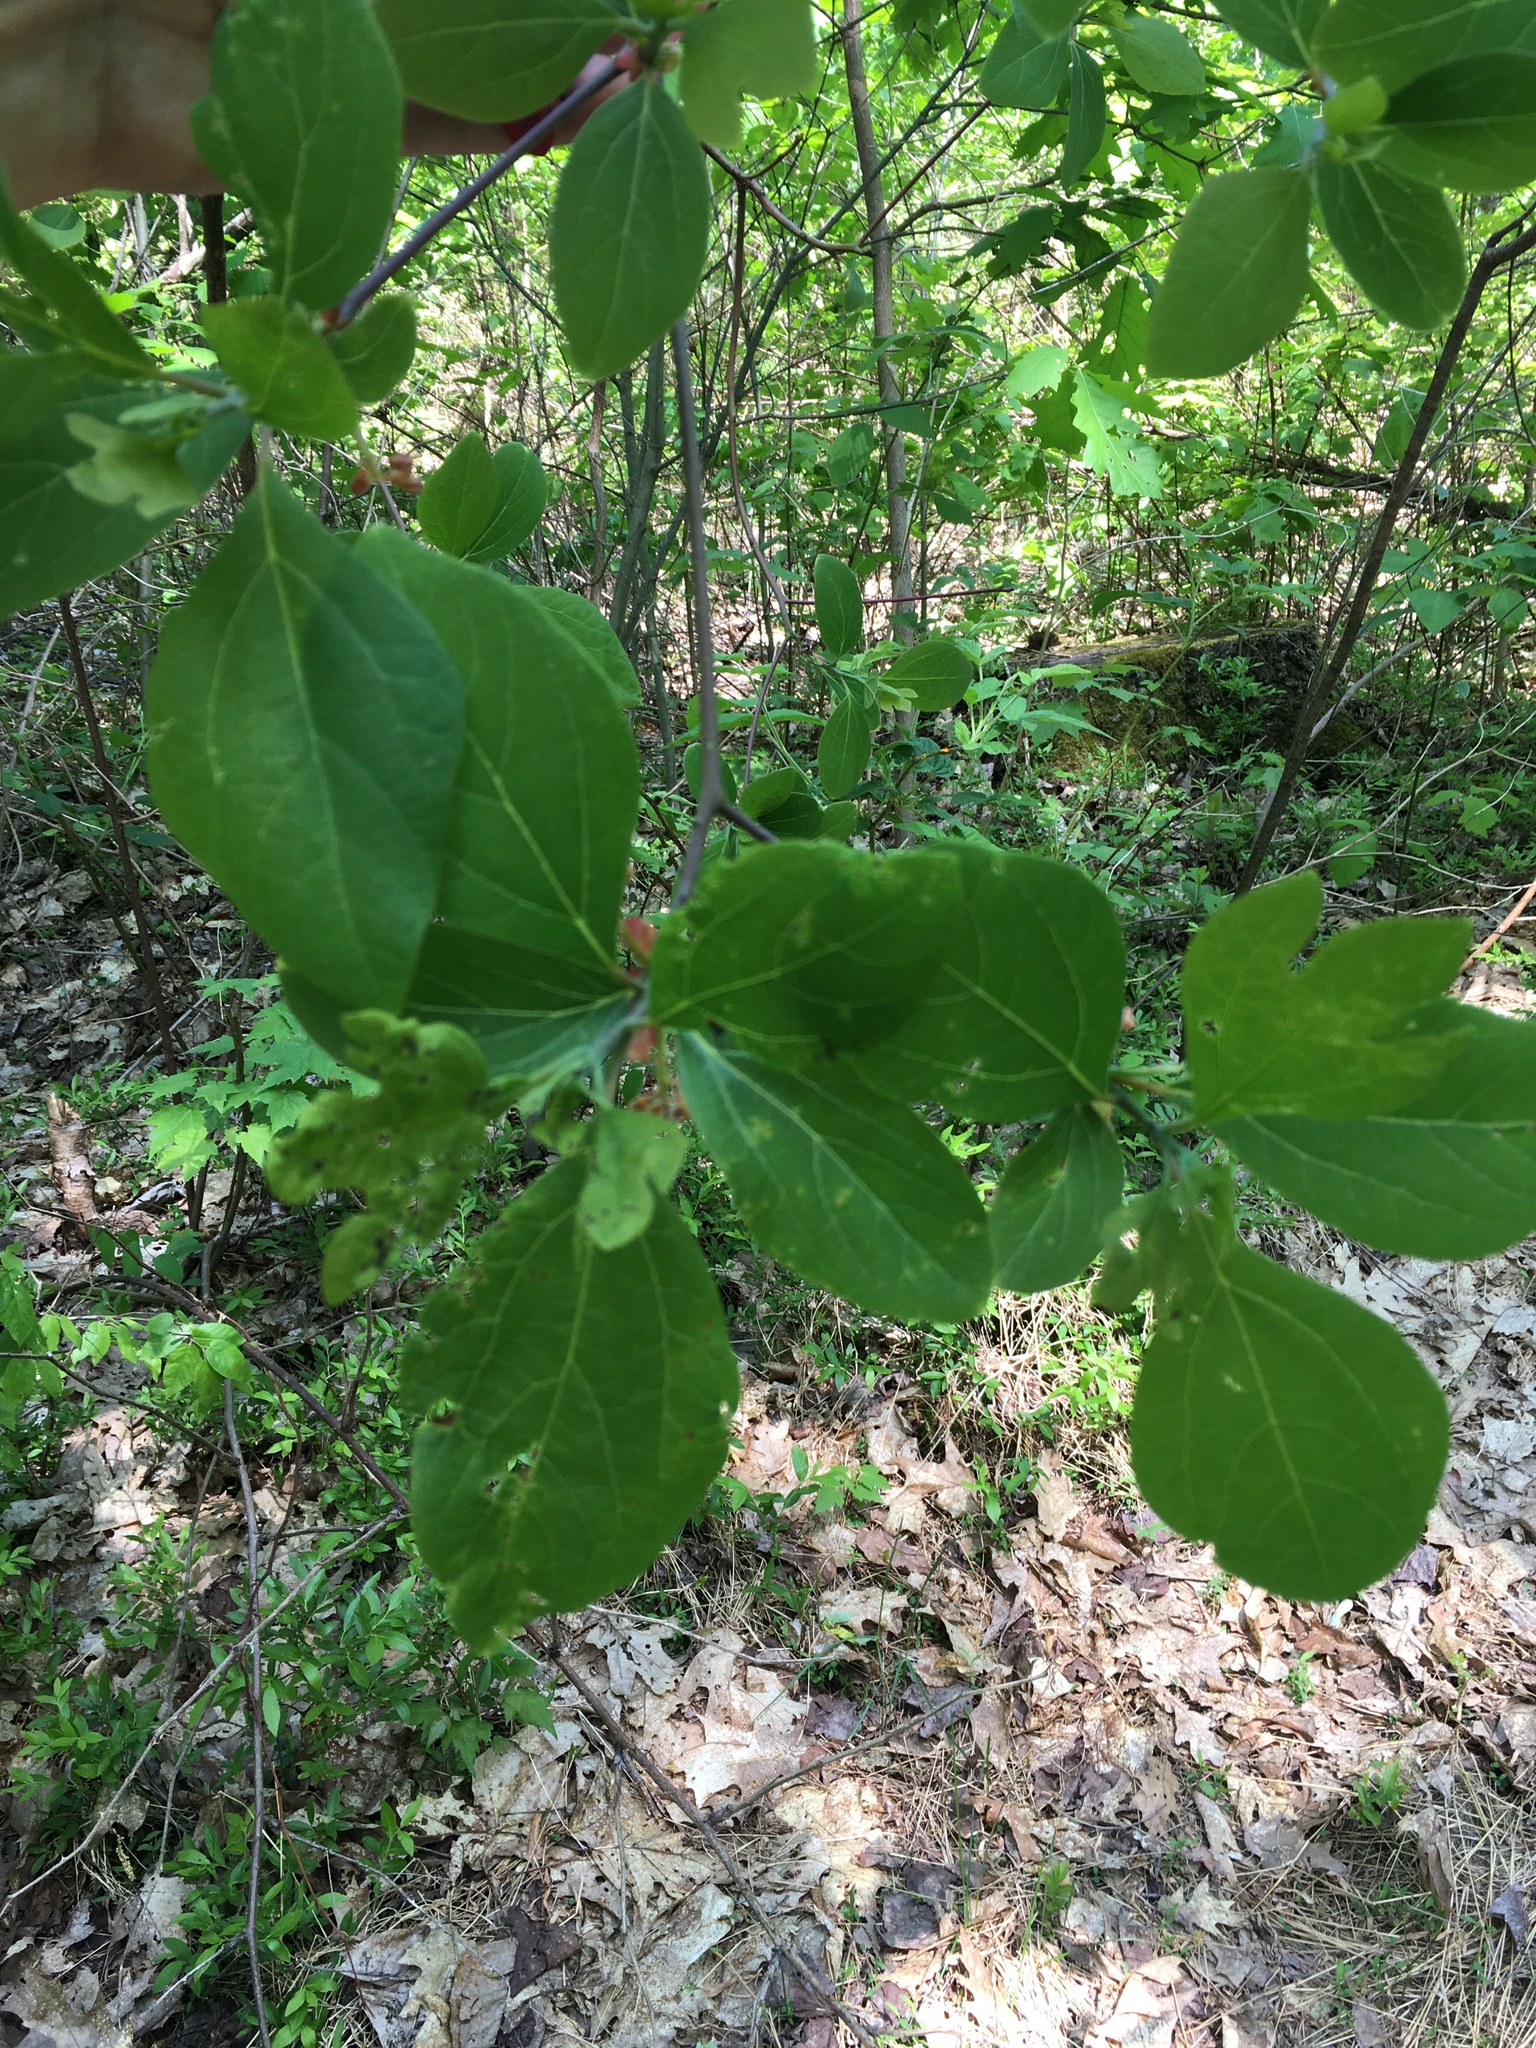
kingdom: Plantae
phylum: Tracheophyta
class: Magnoliopsida
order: Laurales
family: Lauraceae
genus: Sassafras
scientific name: Sassafras albidum
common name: Sassafras
